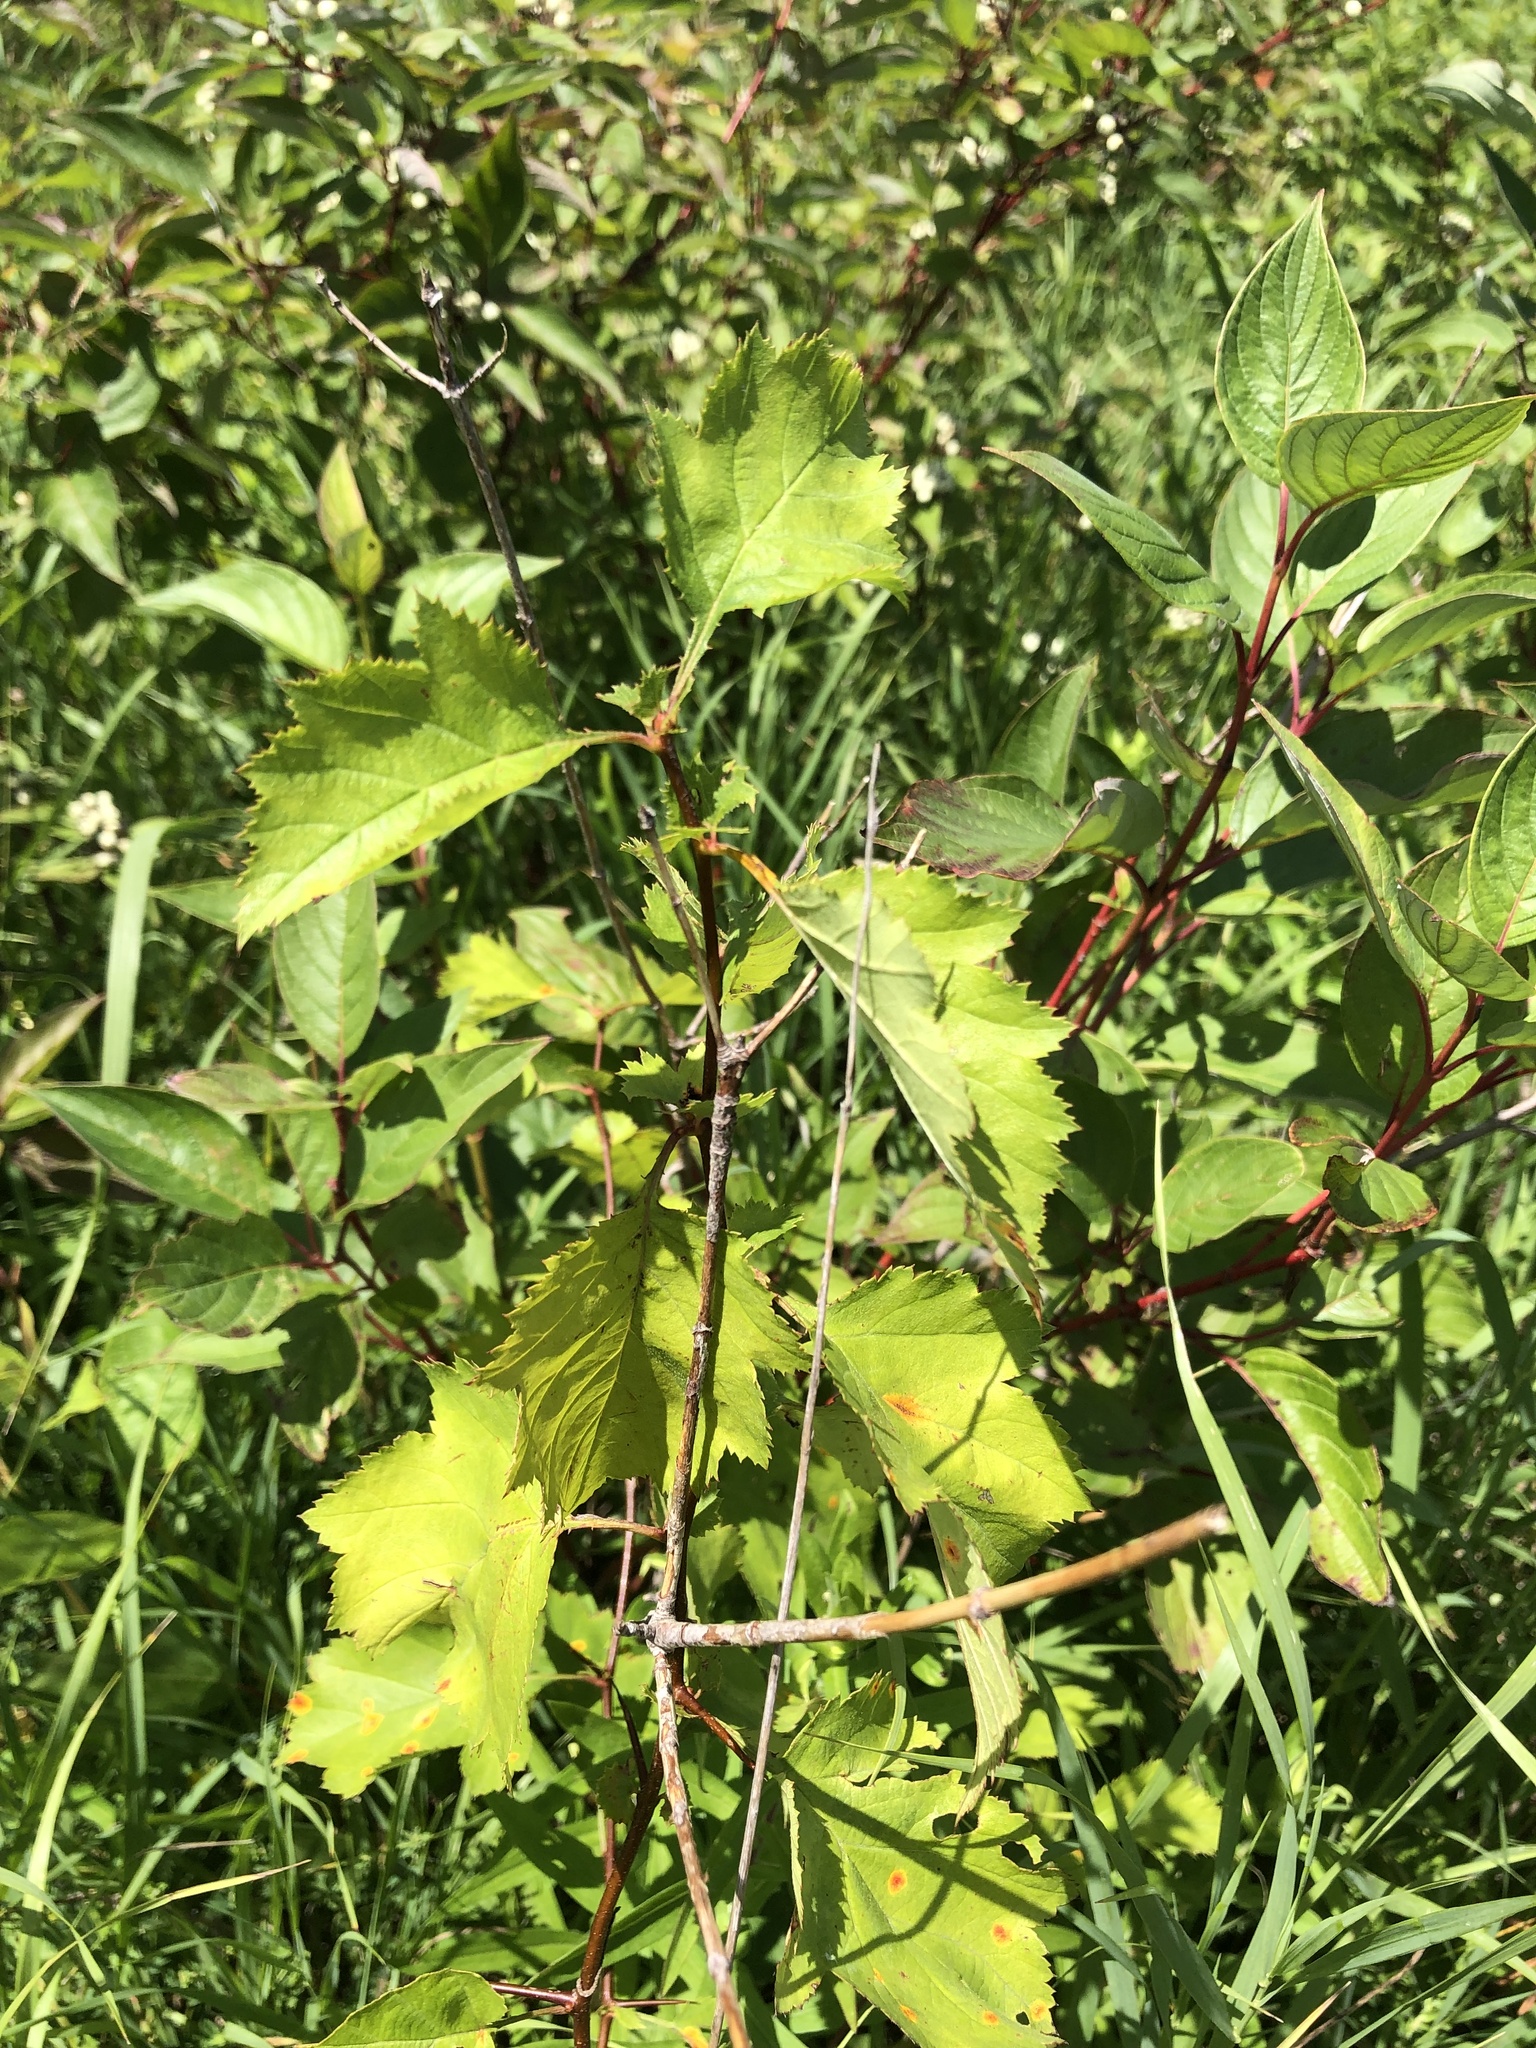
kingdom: Plantae
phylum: Tracheophyta
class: Magnoliopsida
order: Rosales
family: Rosaceae
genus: Crataegus
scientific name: Crataegus
